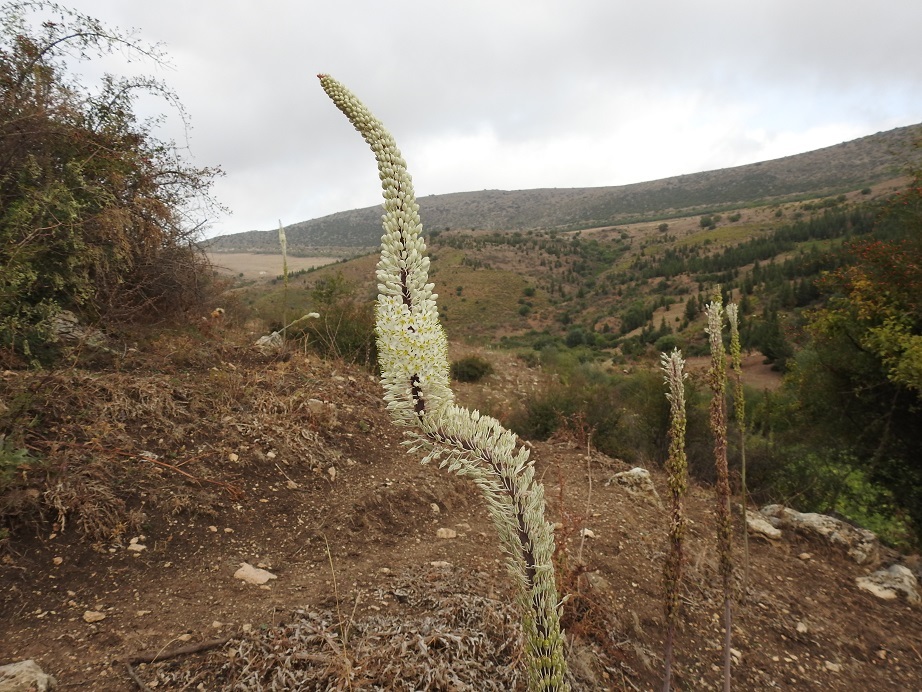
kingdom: Plantae
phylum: Tracheophyta
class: Liliopsida
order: Asparagales
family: Asparagaceae
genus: Drimia
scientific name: Drimia numidica
